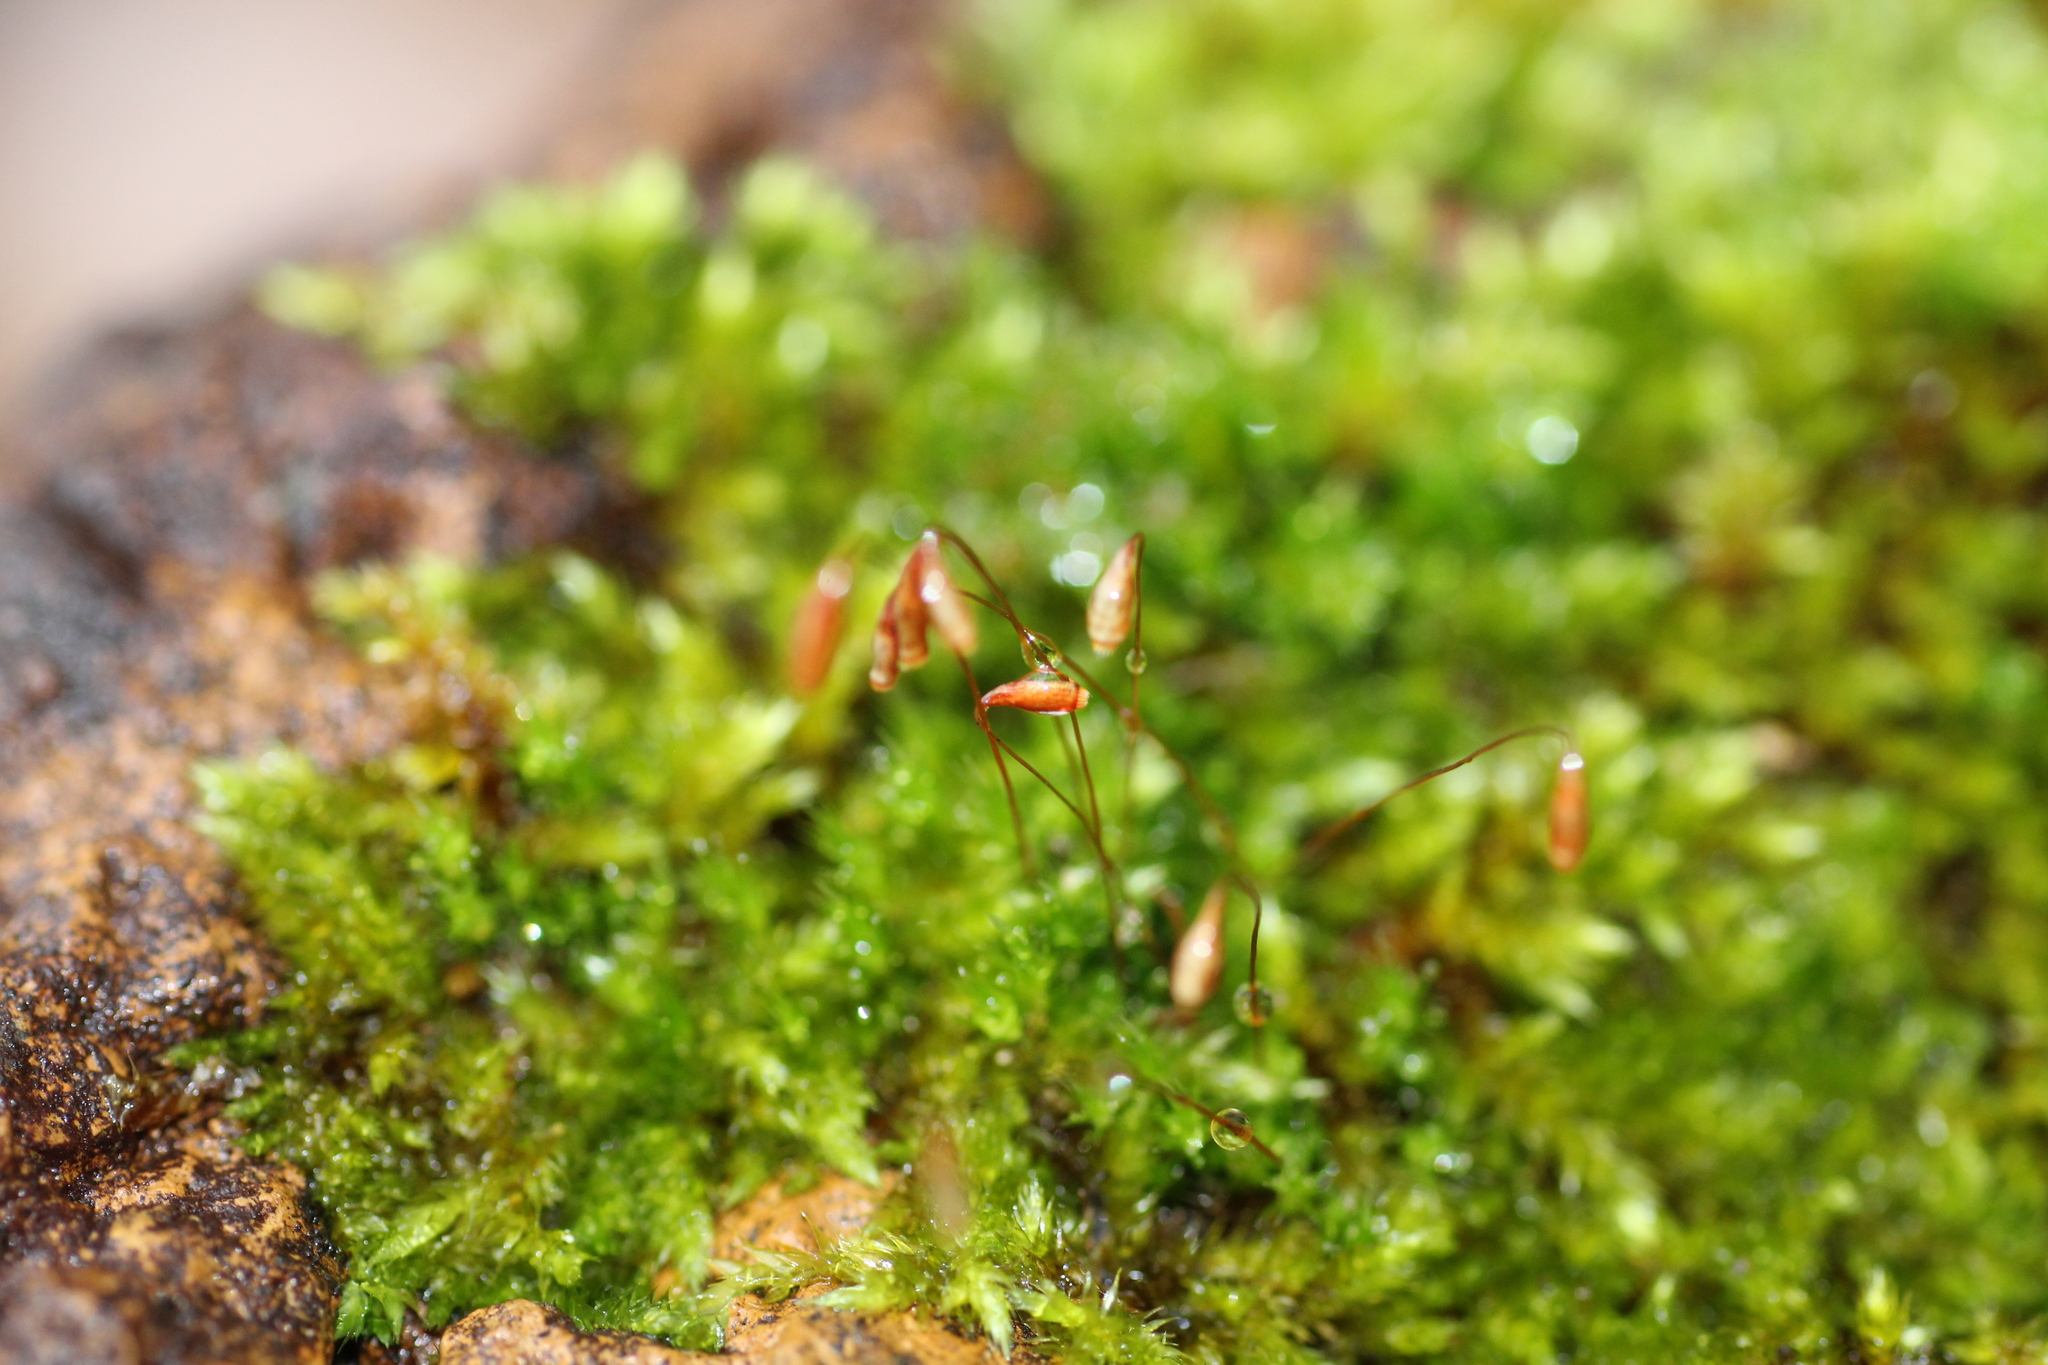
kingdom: Plantae
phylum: Bryophyta
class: Bryopsida
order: Hypnales
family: Sematophyllaceae
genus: Sematophyllum
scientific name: Sematophyllum homomallum
